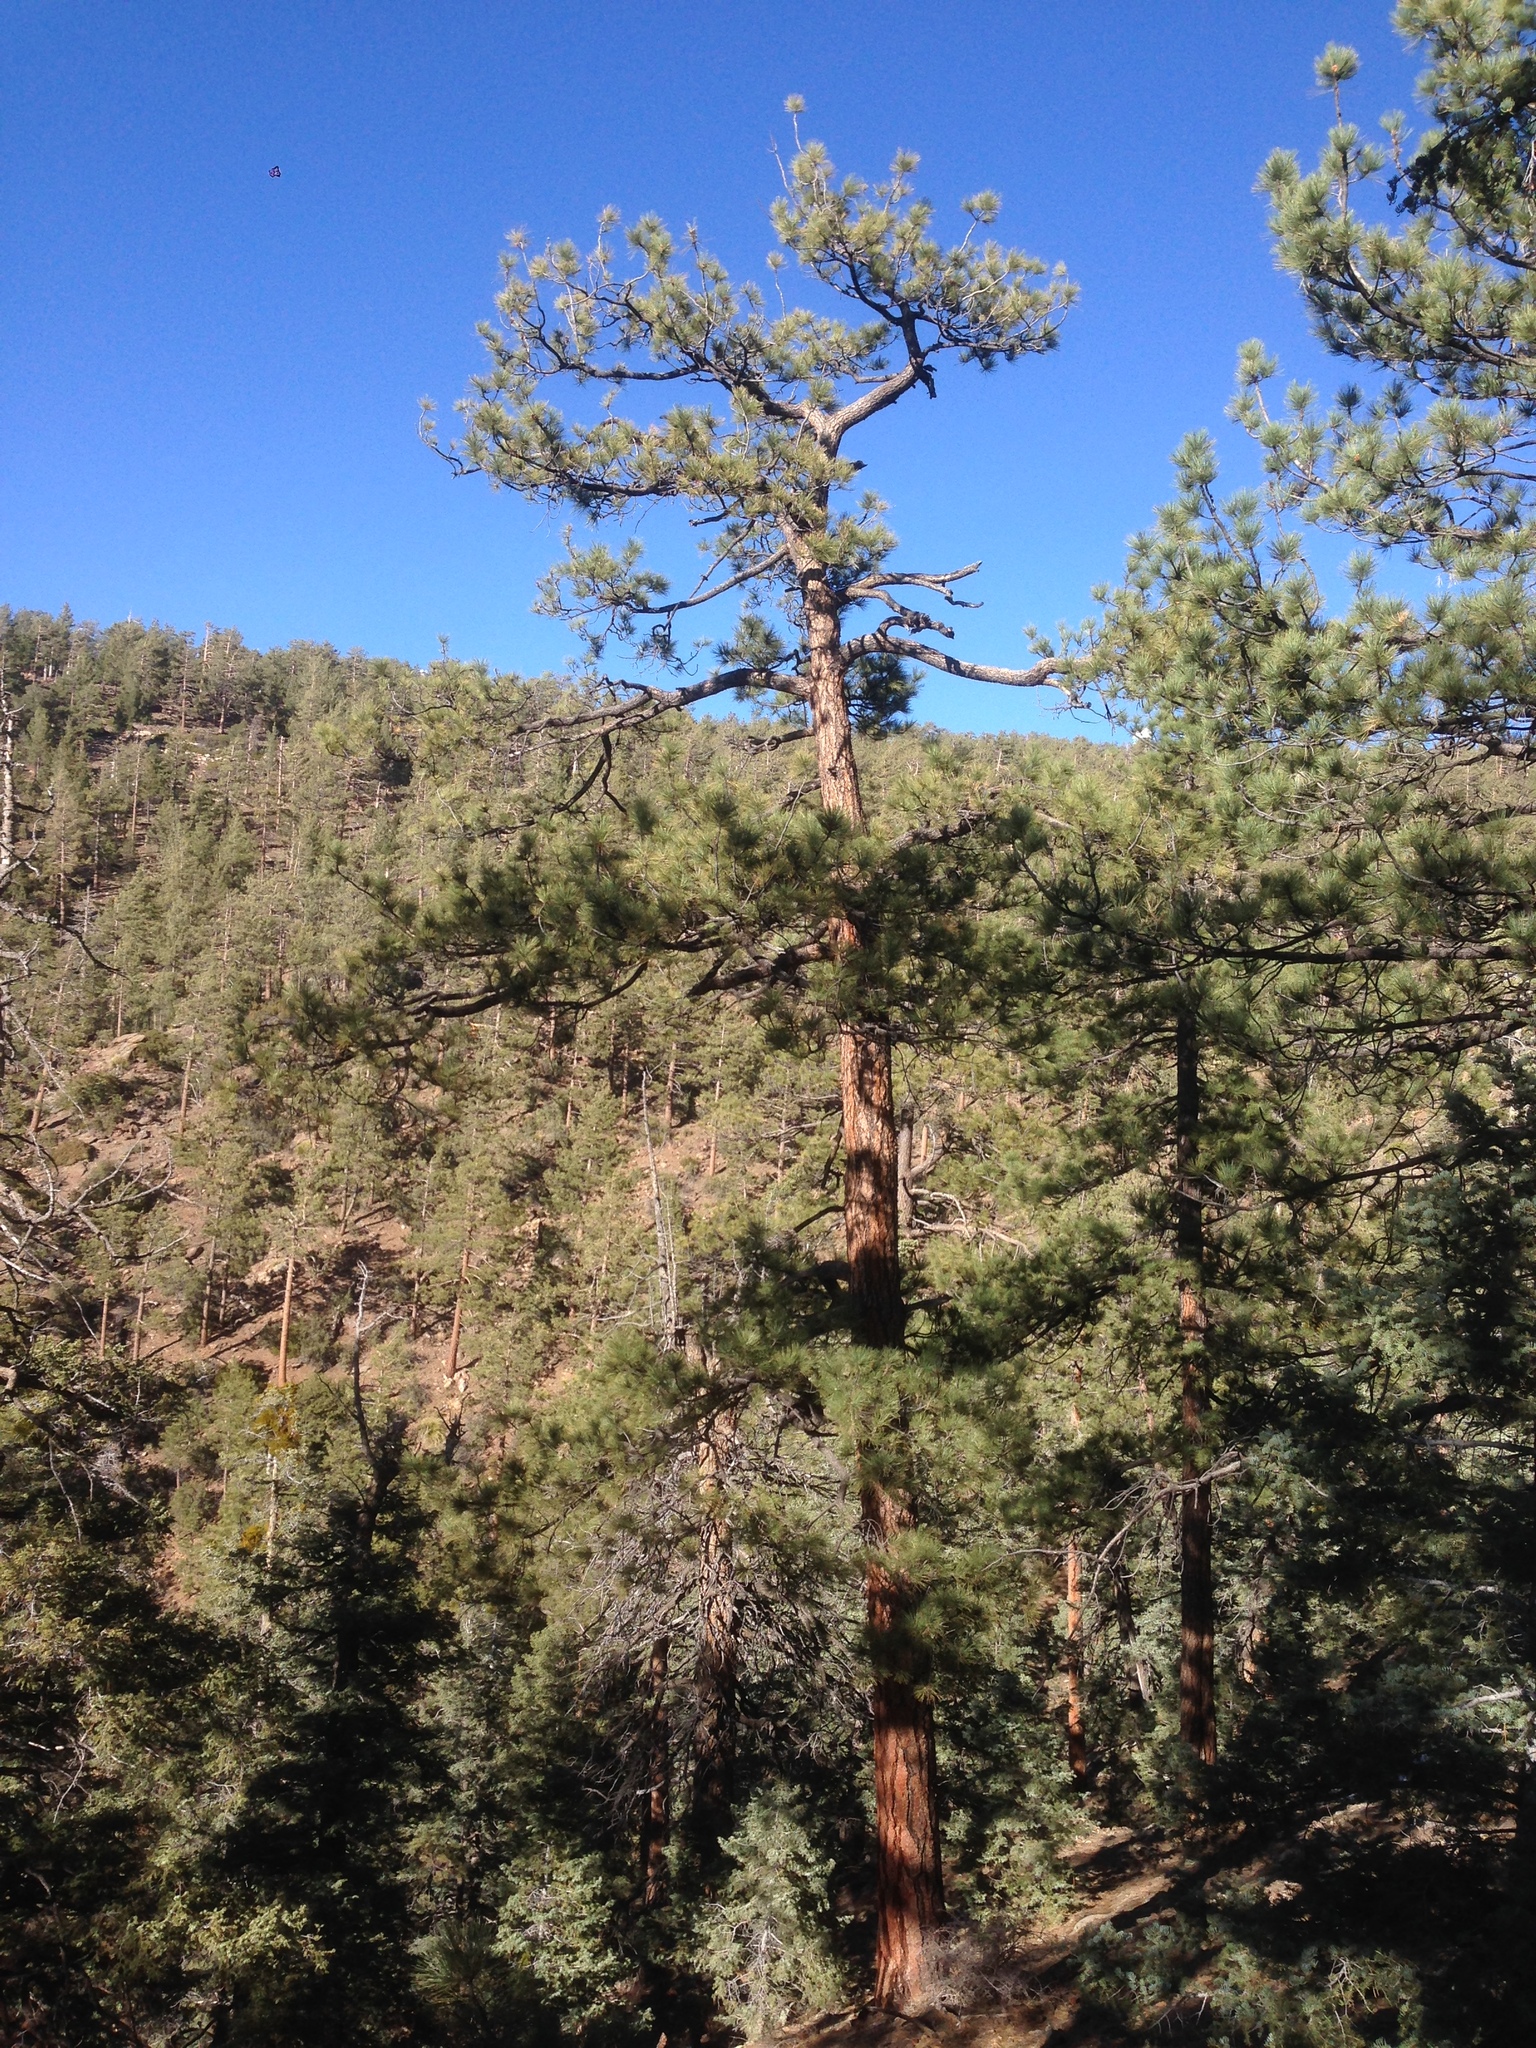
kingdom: Plantae
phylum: Tracheophyta
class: Pinopsida
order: Pinales
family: Pinaceae
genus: Pinus
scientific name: Pinus jeffreyi
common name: Jeffrey pine
